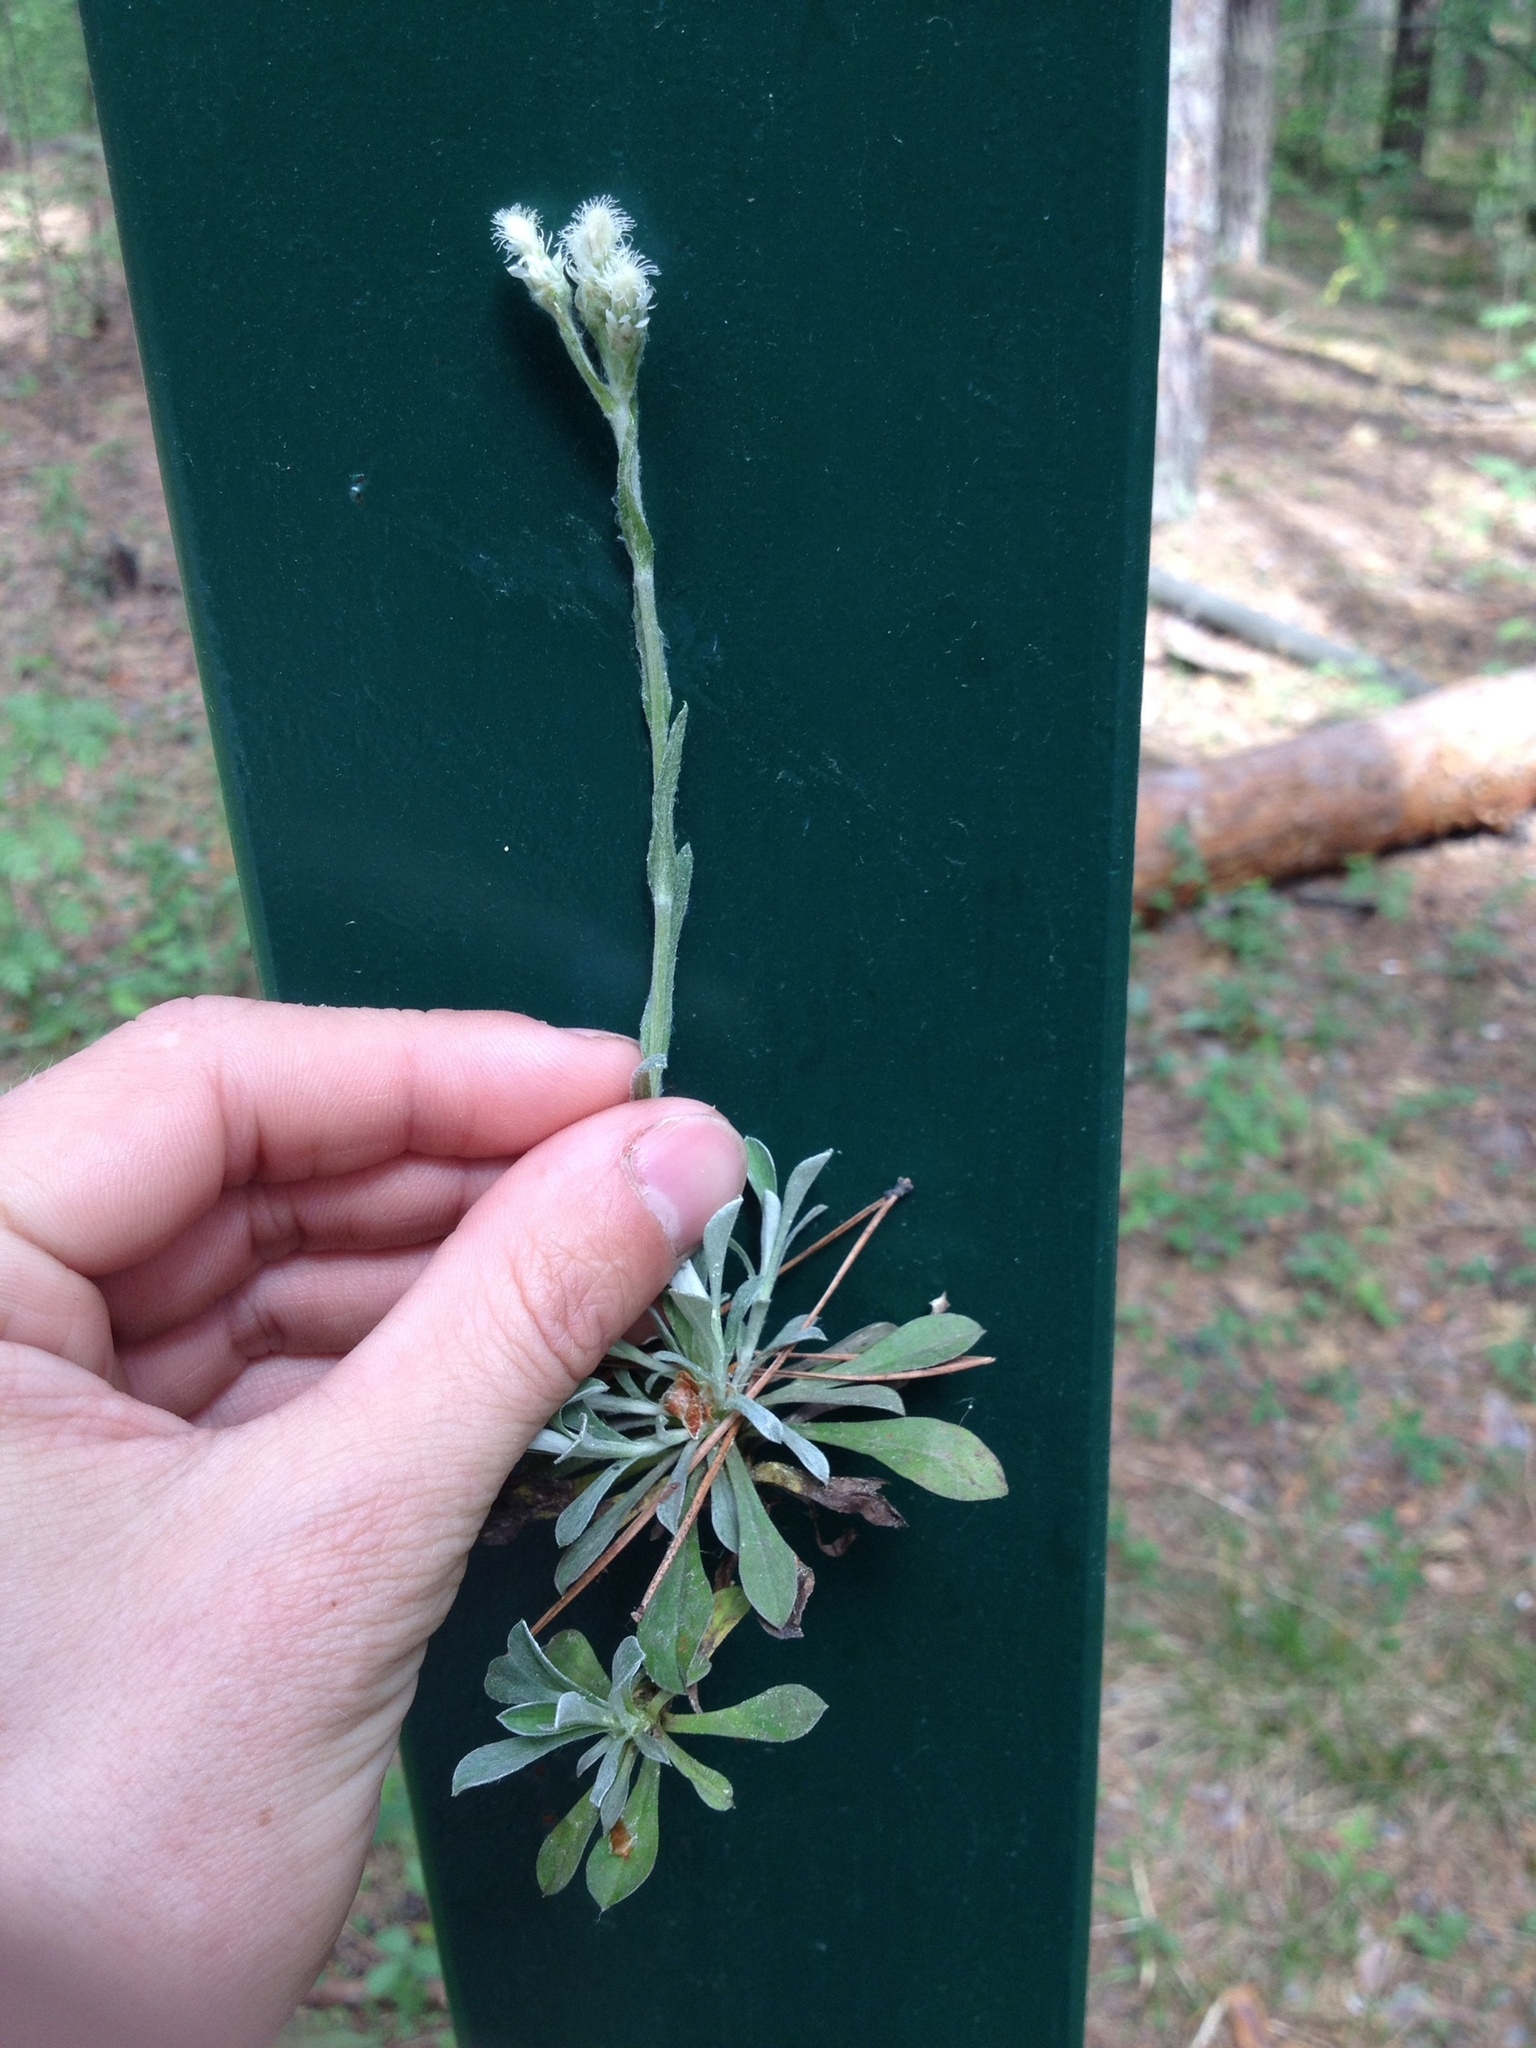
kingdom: Plantae
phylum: Tracheophyta
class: Magnoliopsida
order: Asterales
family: Asteraceae
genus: Antennaria
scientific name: Antennaria dioica
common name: Mountain everlasting
